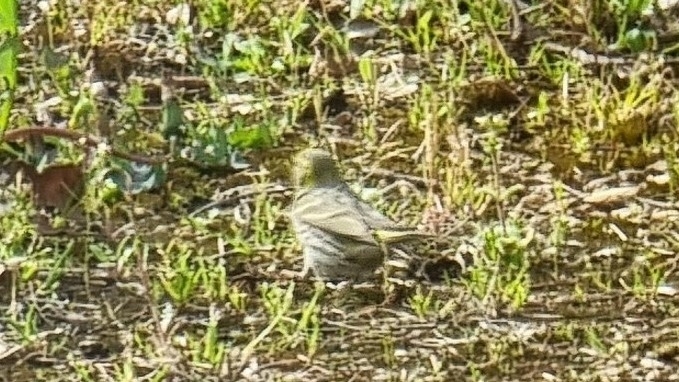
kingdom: Animalia
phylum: Chordata
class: Aves
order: Passeriformes
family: Fringillidae
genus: Serinus
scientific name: Serinus serinus
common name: European serin
